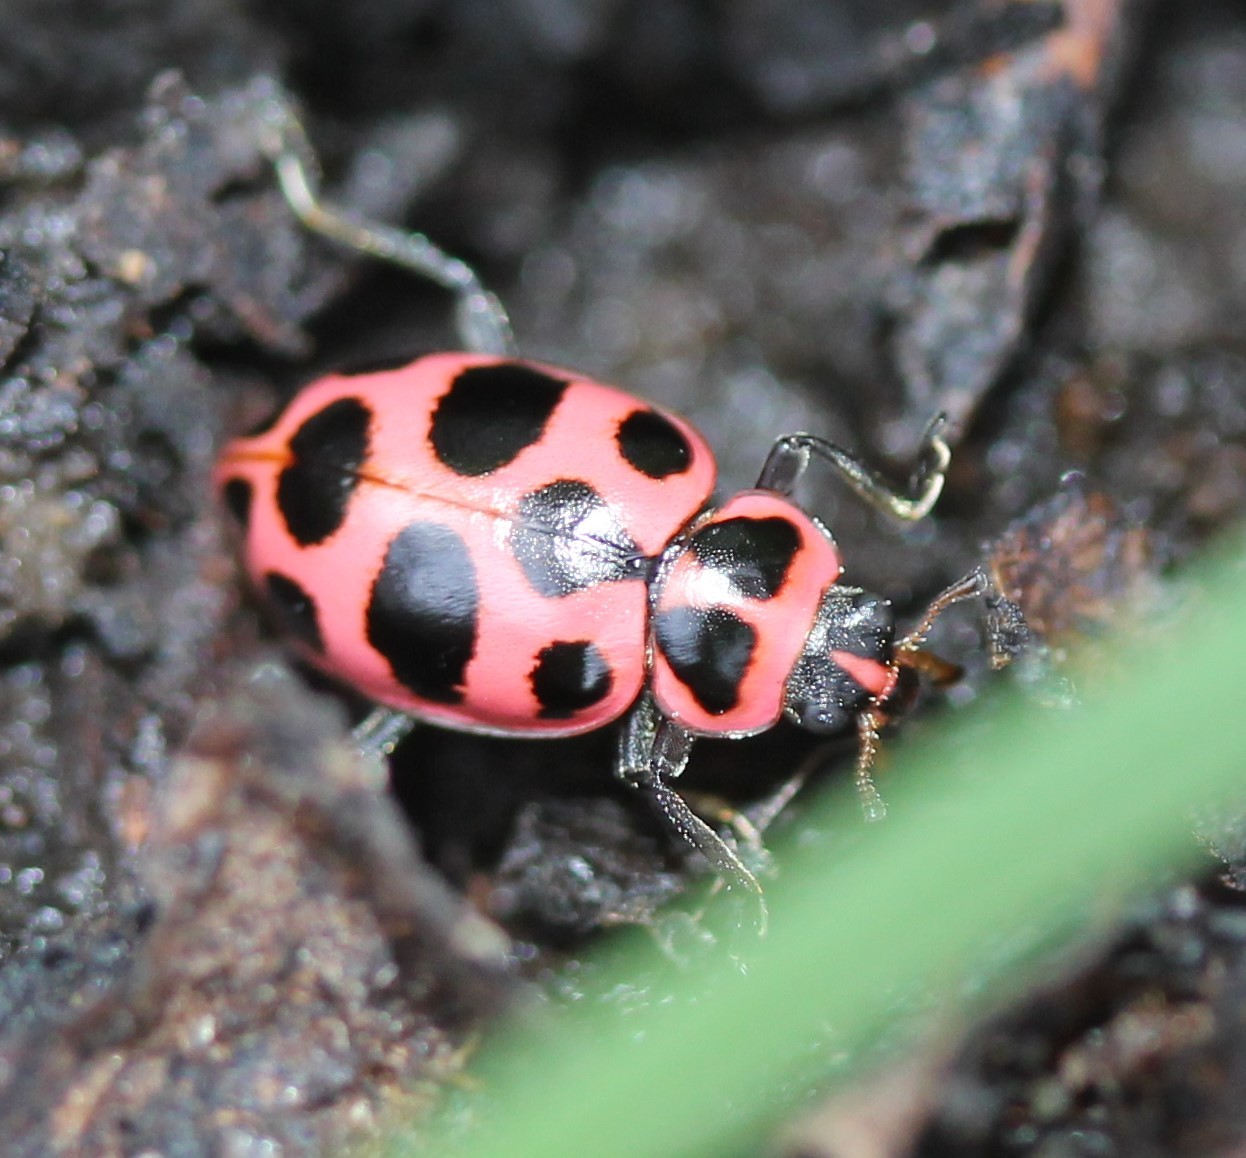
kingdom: Animalia
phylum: Arthropoda
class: Insecta
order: Coleoptera
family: Coccinellidae
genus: Coleomegilla
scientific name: Coleomegilla maculata
